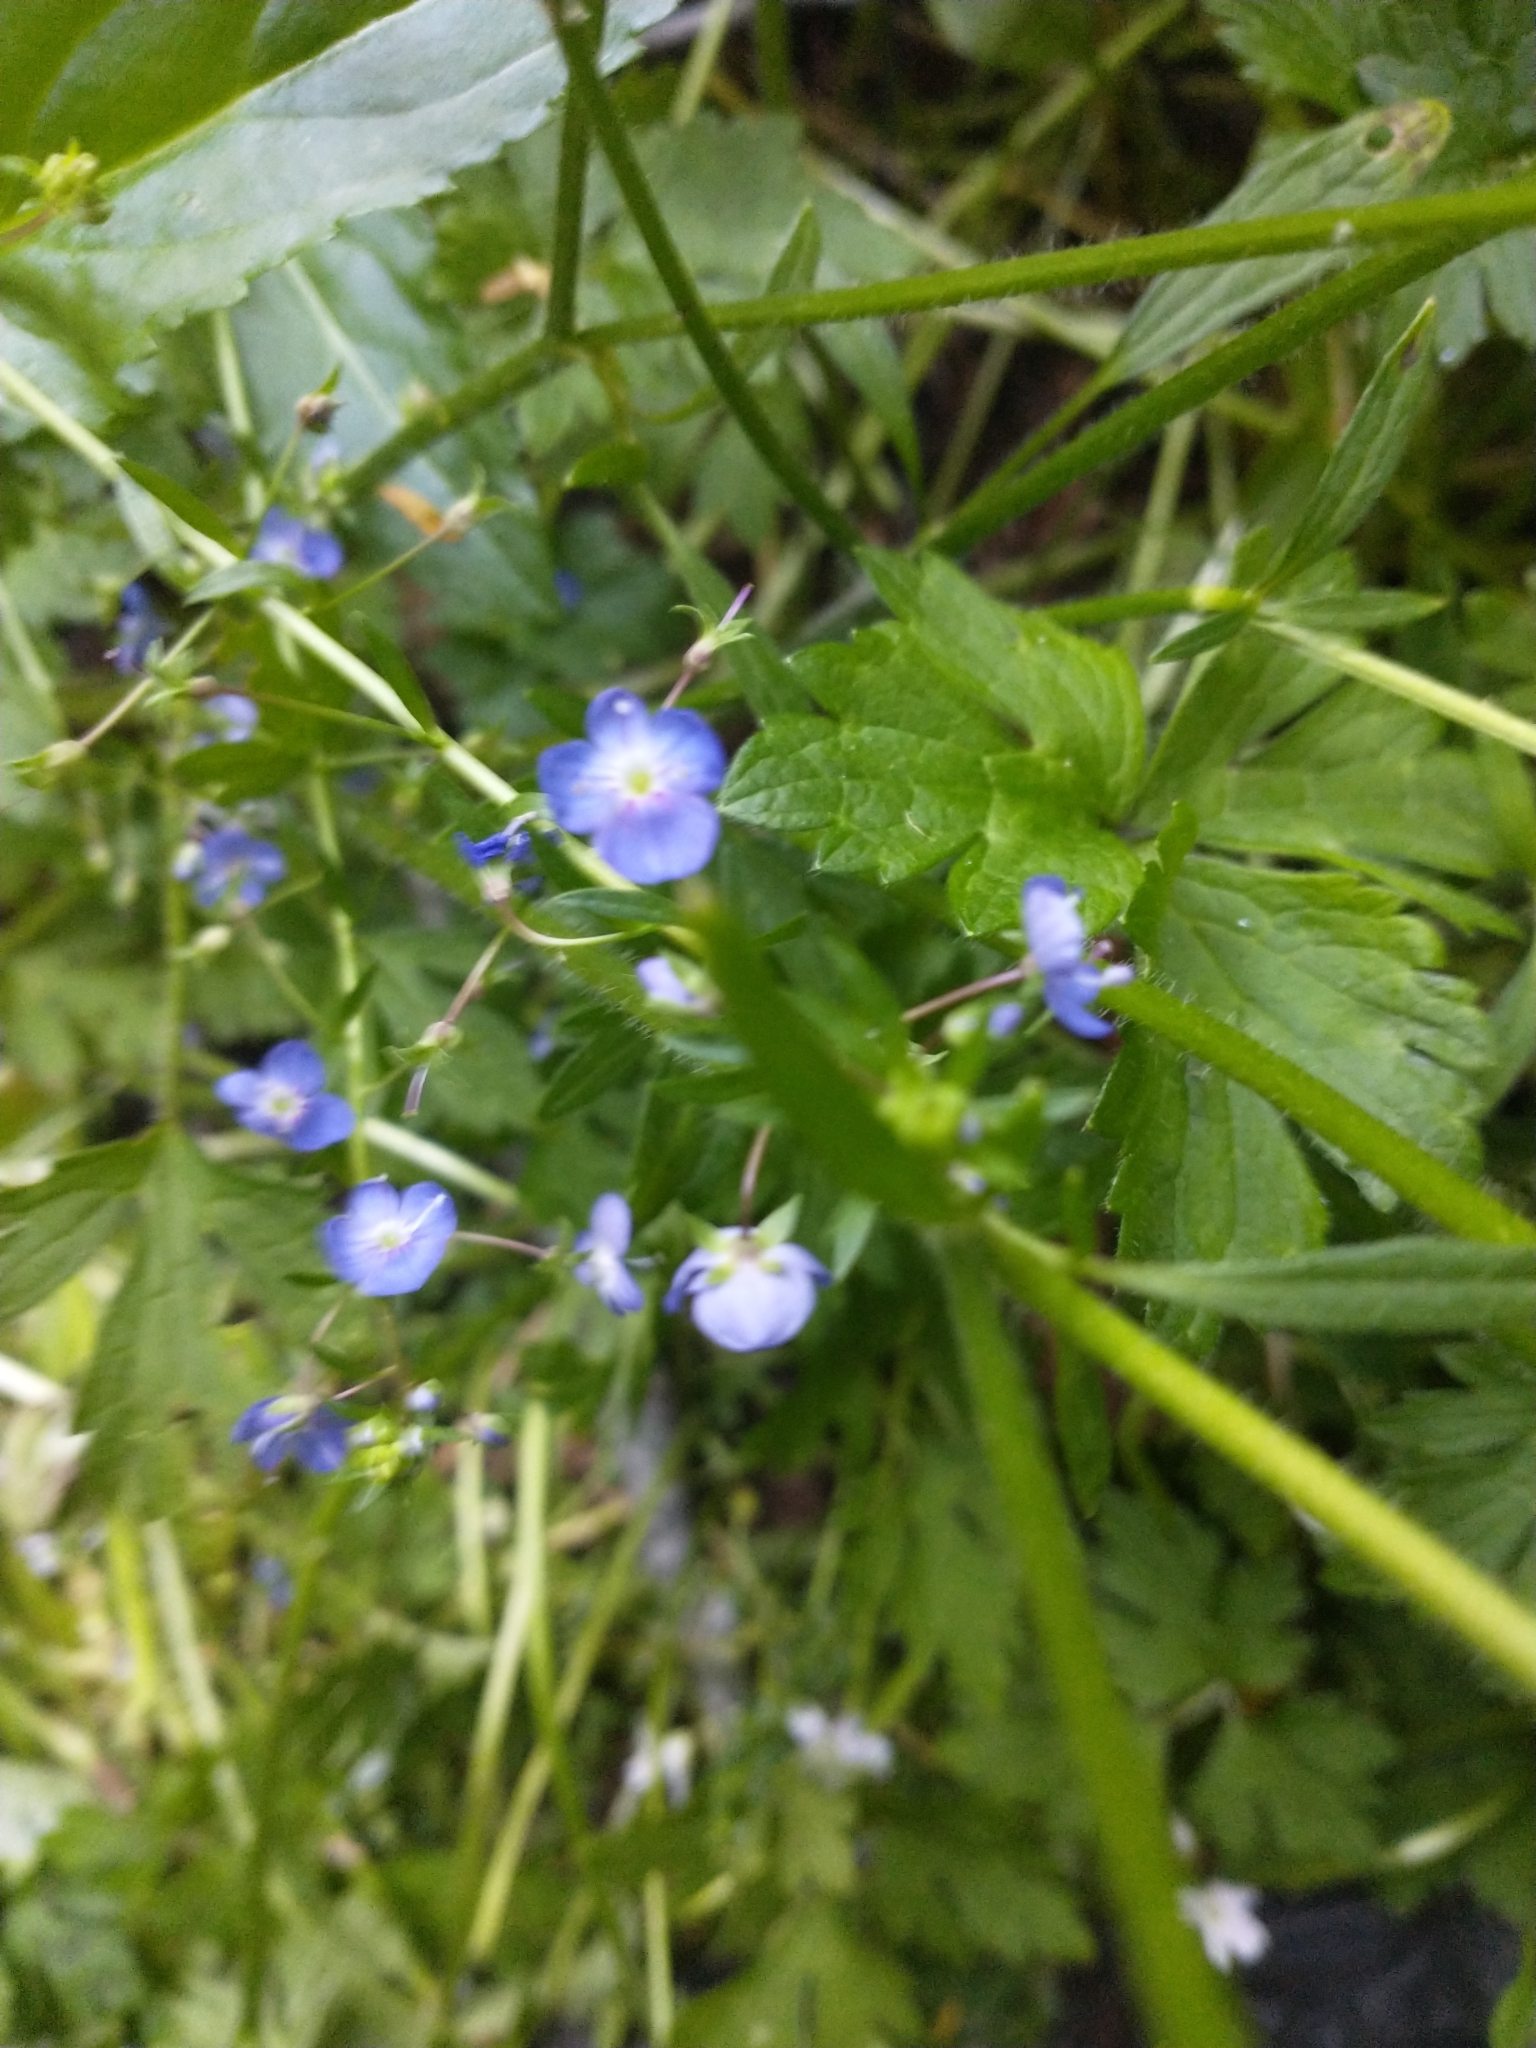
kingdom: Plantae
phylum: Tracheophyta
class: Magnoliopsida
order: Lamiales
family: Plantaginaceae
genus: Veronica
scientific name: Veronica americana
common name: American brooklime
